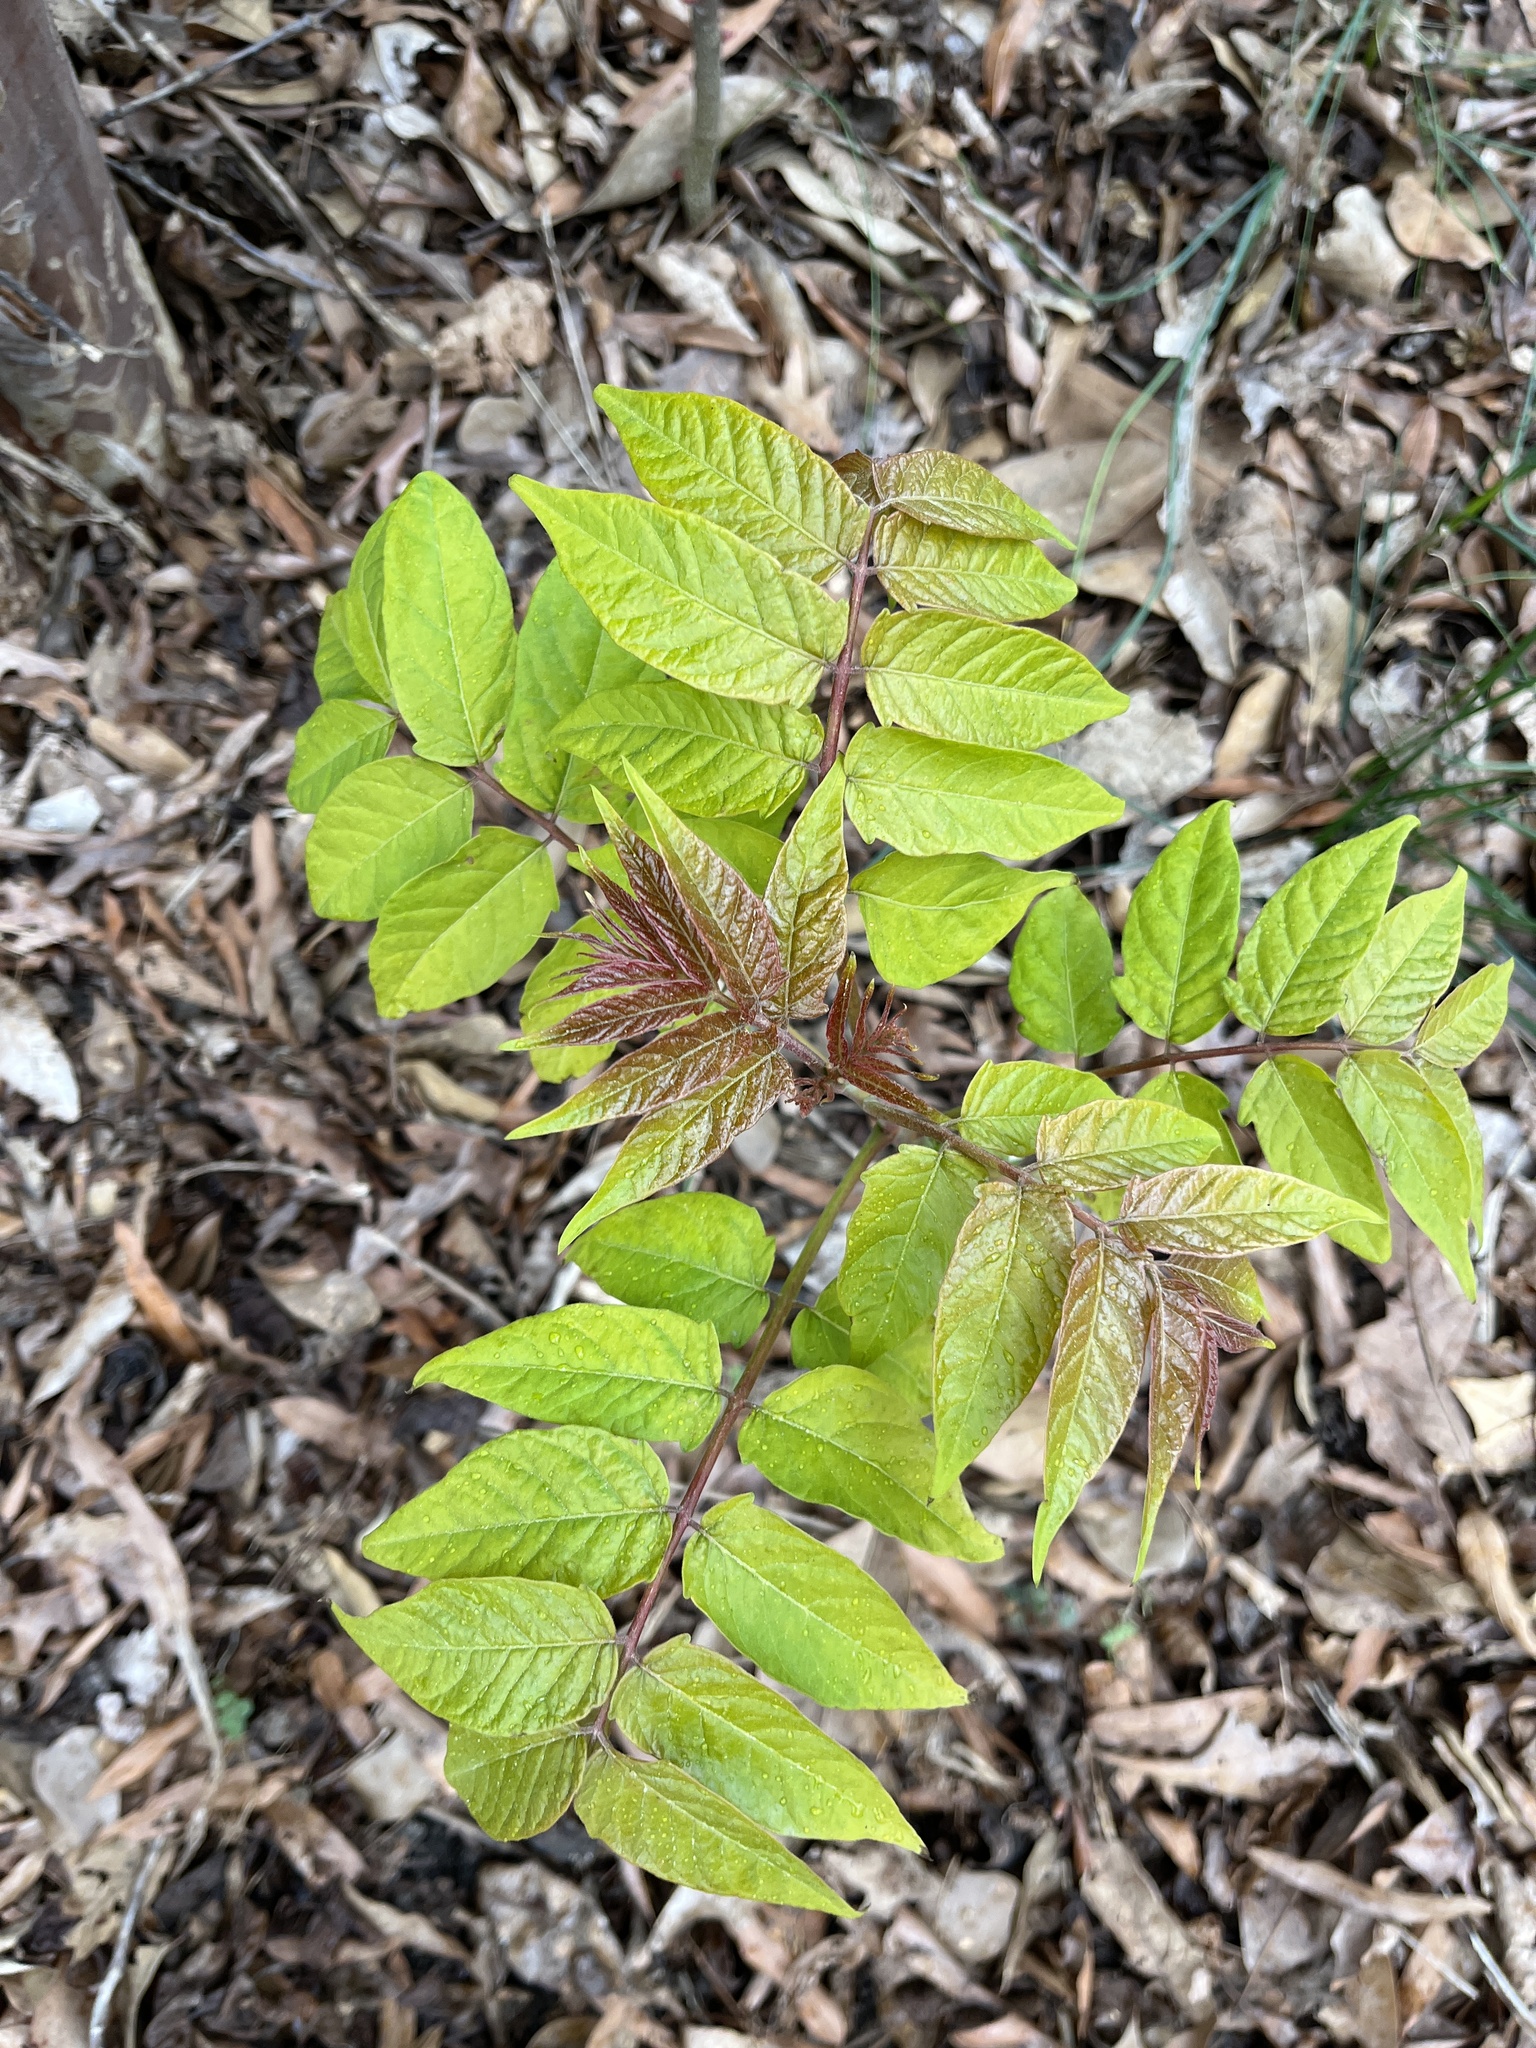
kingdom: Plantae
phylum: Tracheophyta
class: Magnoliopsida
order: Sapindales
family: Simaroubaceae
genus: Ailanthus
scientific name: Ailanthus altissima
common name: Tree-of-heaven
